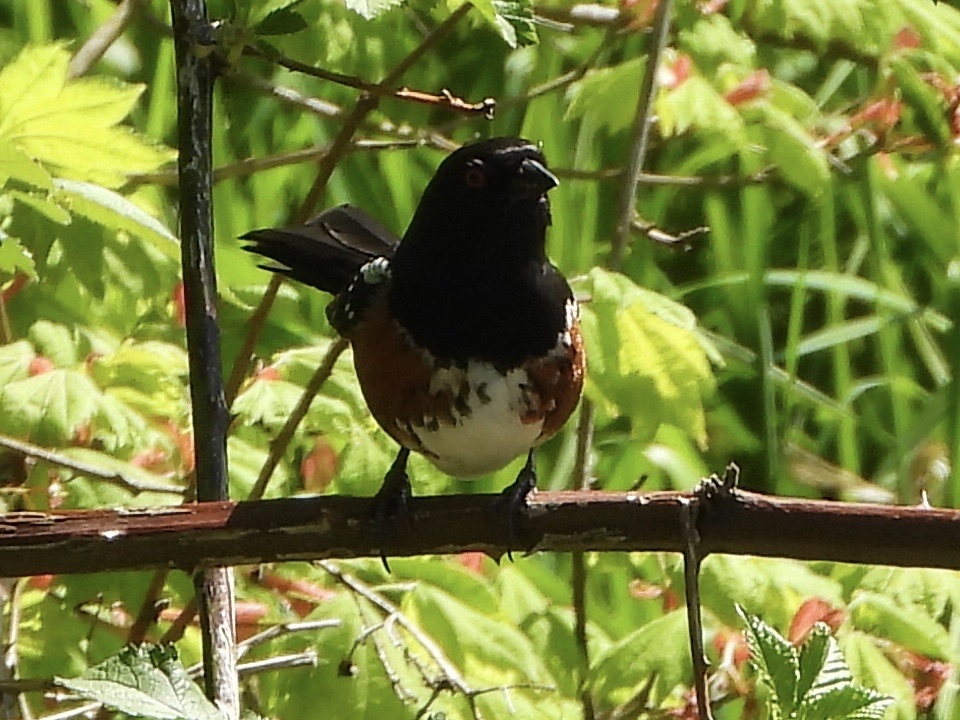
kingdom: Animalia
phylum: Chordata
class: Aves
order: Passeriformes
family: Passerellidae
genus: Pipilo
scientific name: Pipilo maculatus
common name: Spotted towhee
